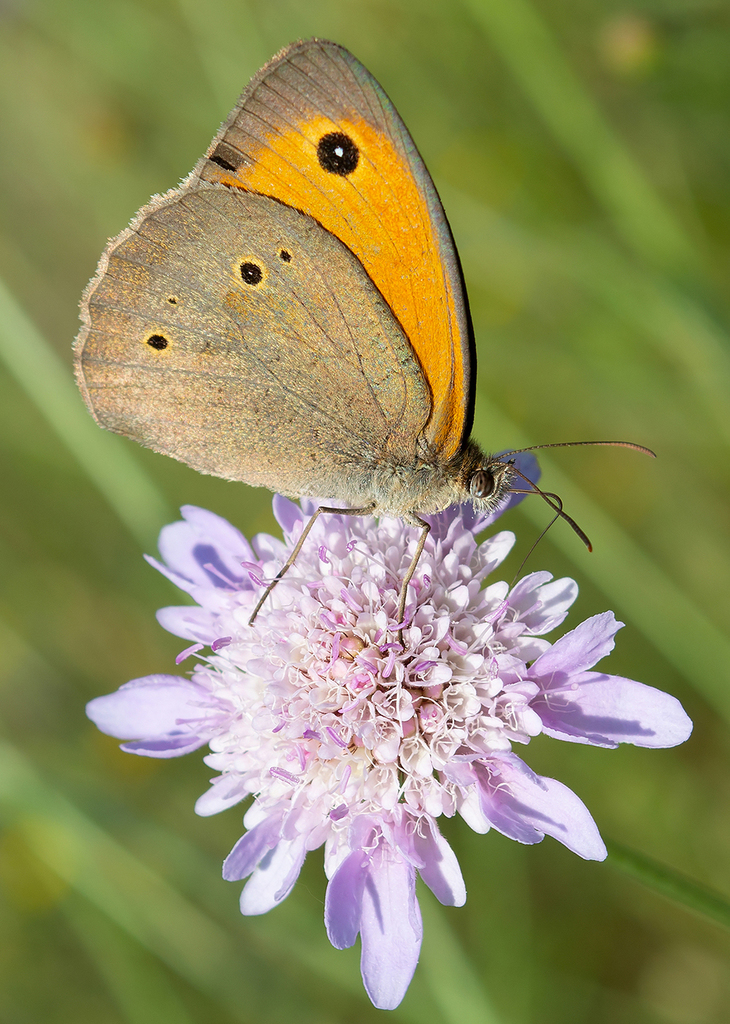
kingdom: Animalia
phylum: Arthropoda
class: Insecta
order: Lepidoptera
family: Nymphalidae
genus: Maniola
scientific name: Maniola jurtina
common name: Meadow brown
